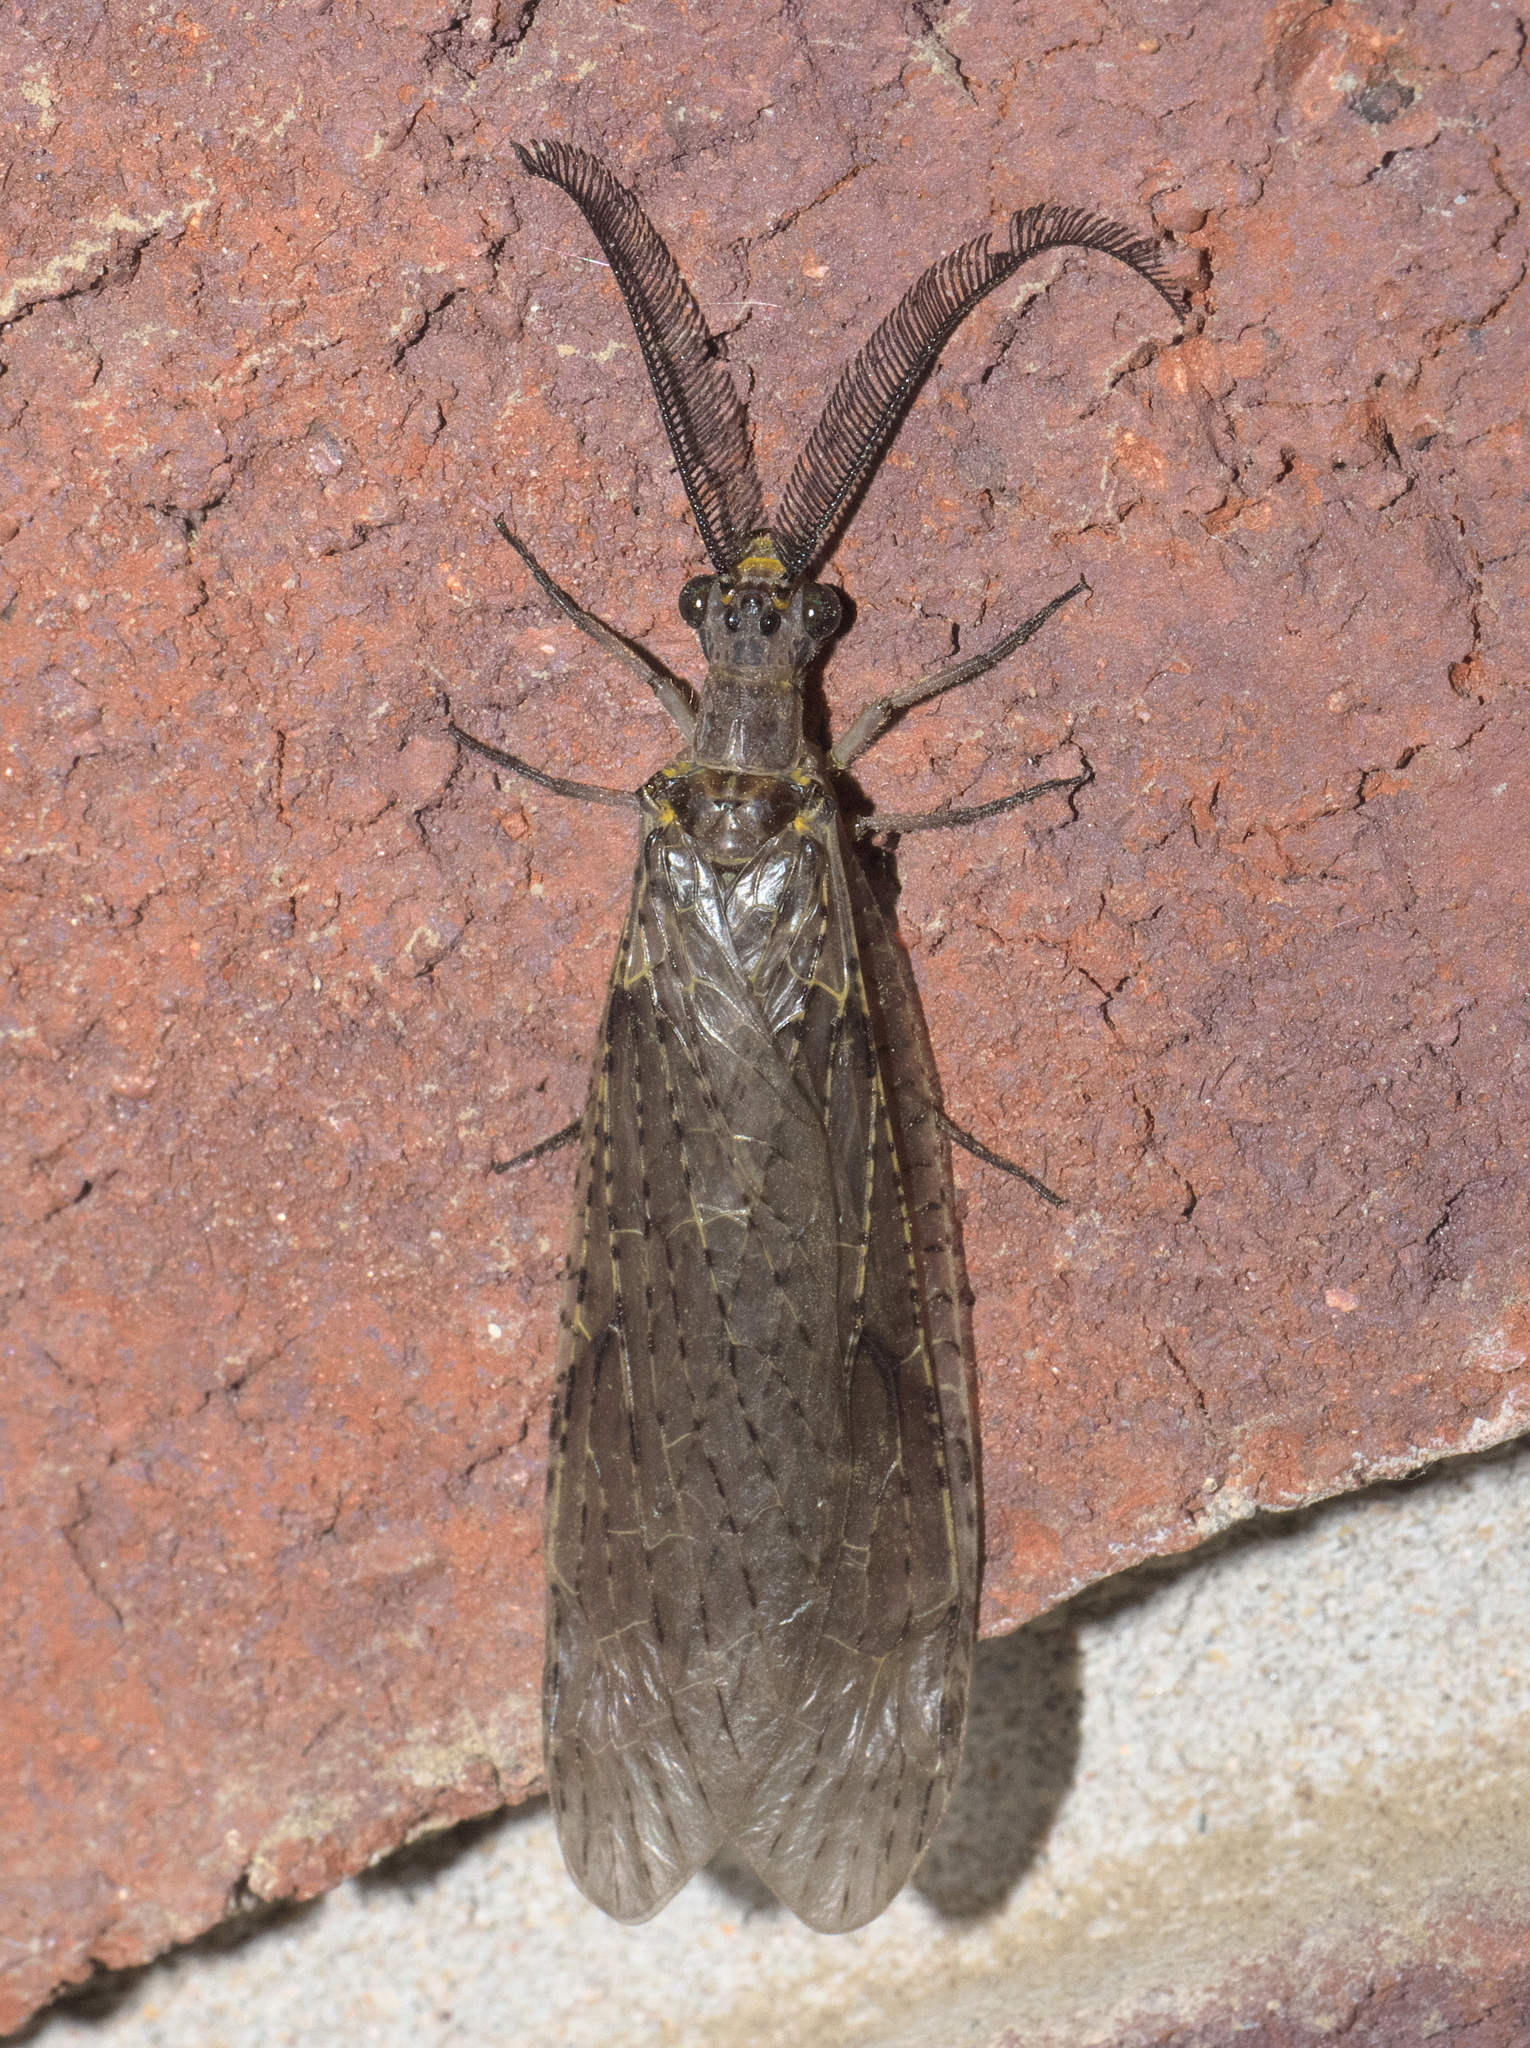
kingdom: Animalia
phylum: Arthropoda
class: Insecta
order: Megaloptera
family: Corydalidae
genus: Chauliodes
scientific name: Chauliodes rastricornis
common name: Spring fishfly
